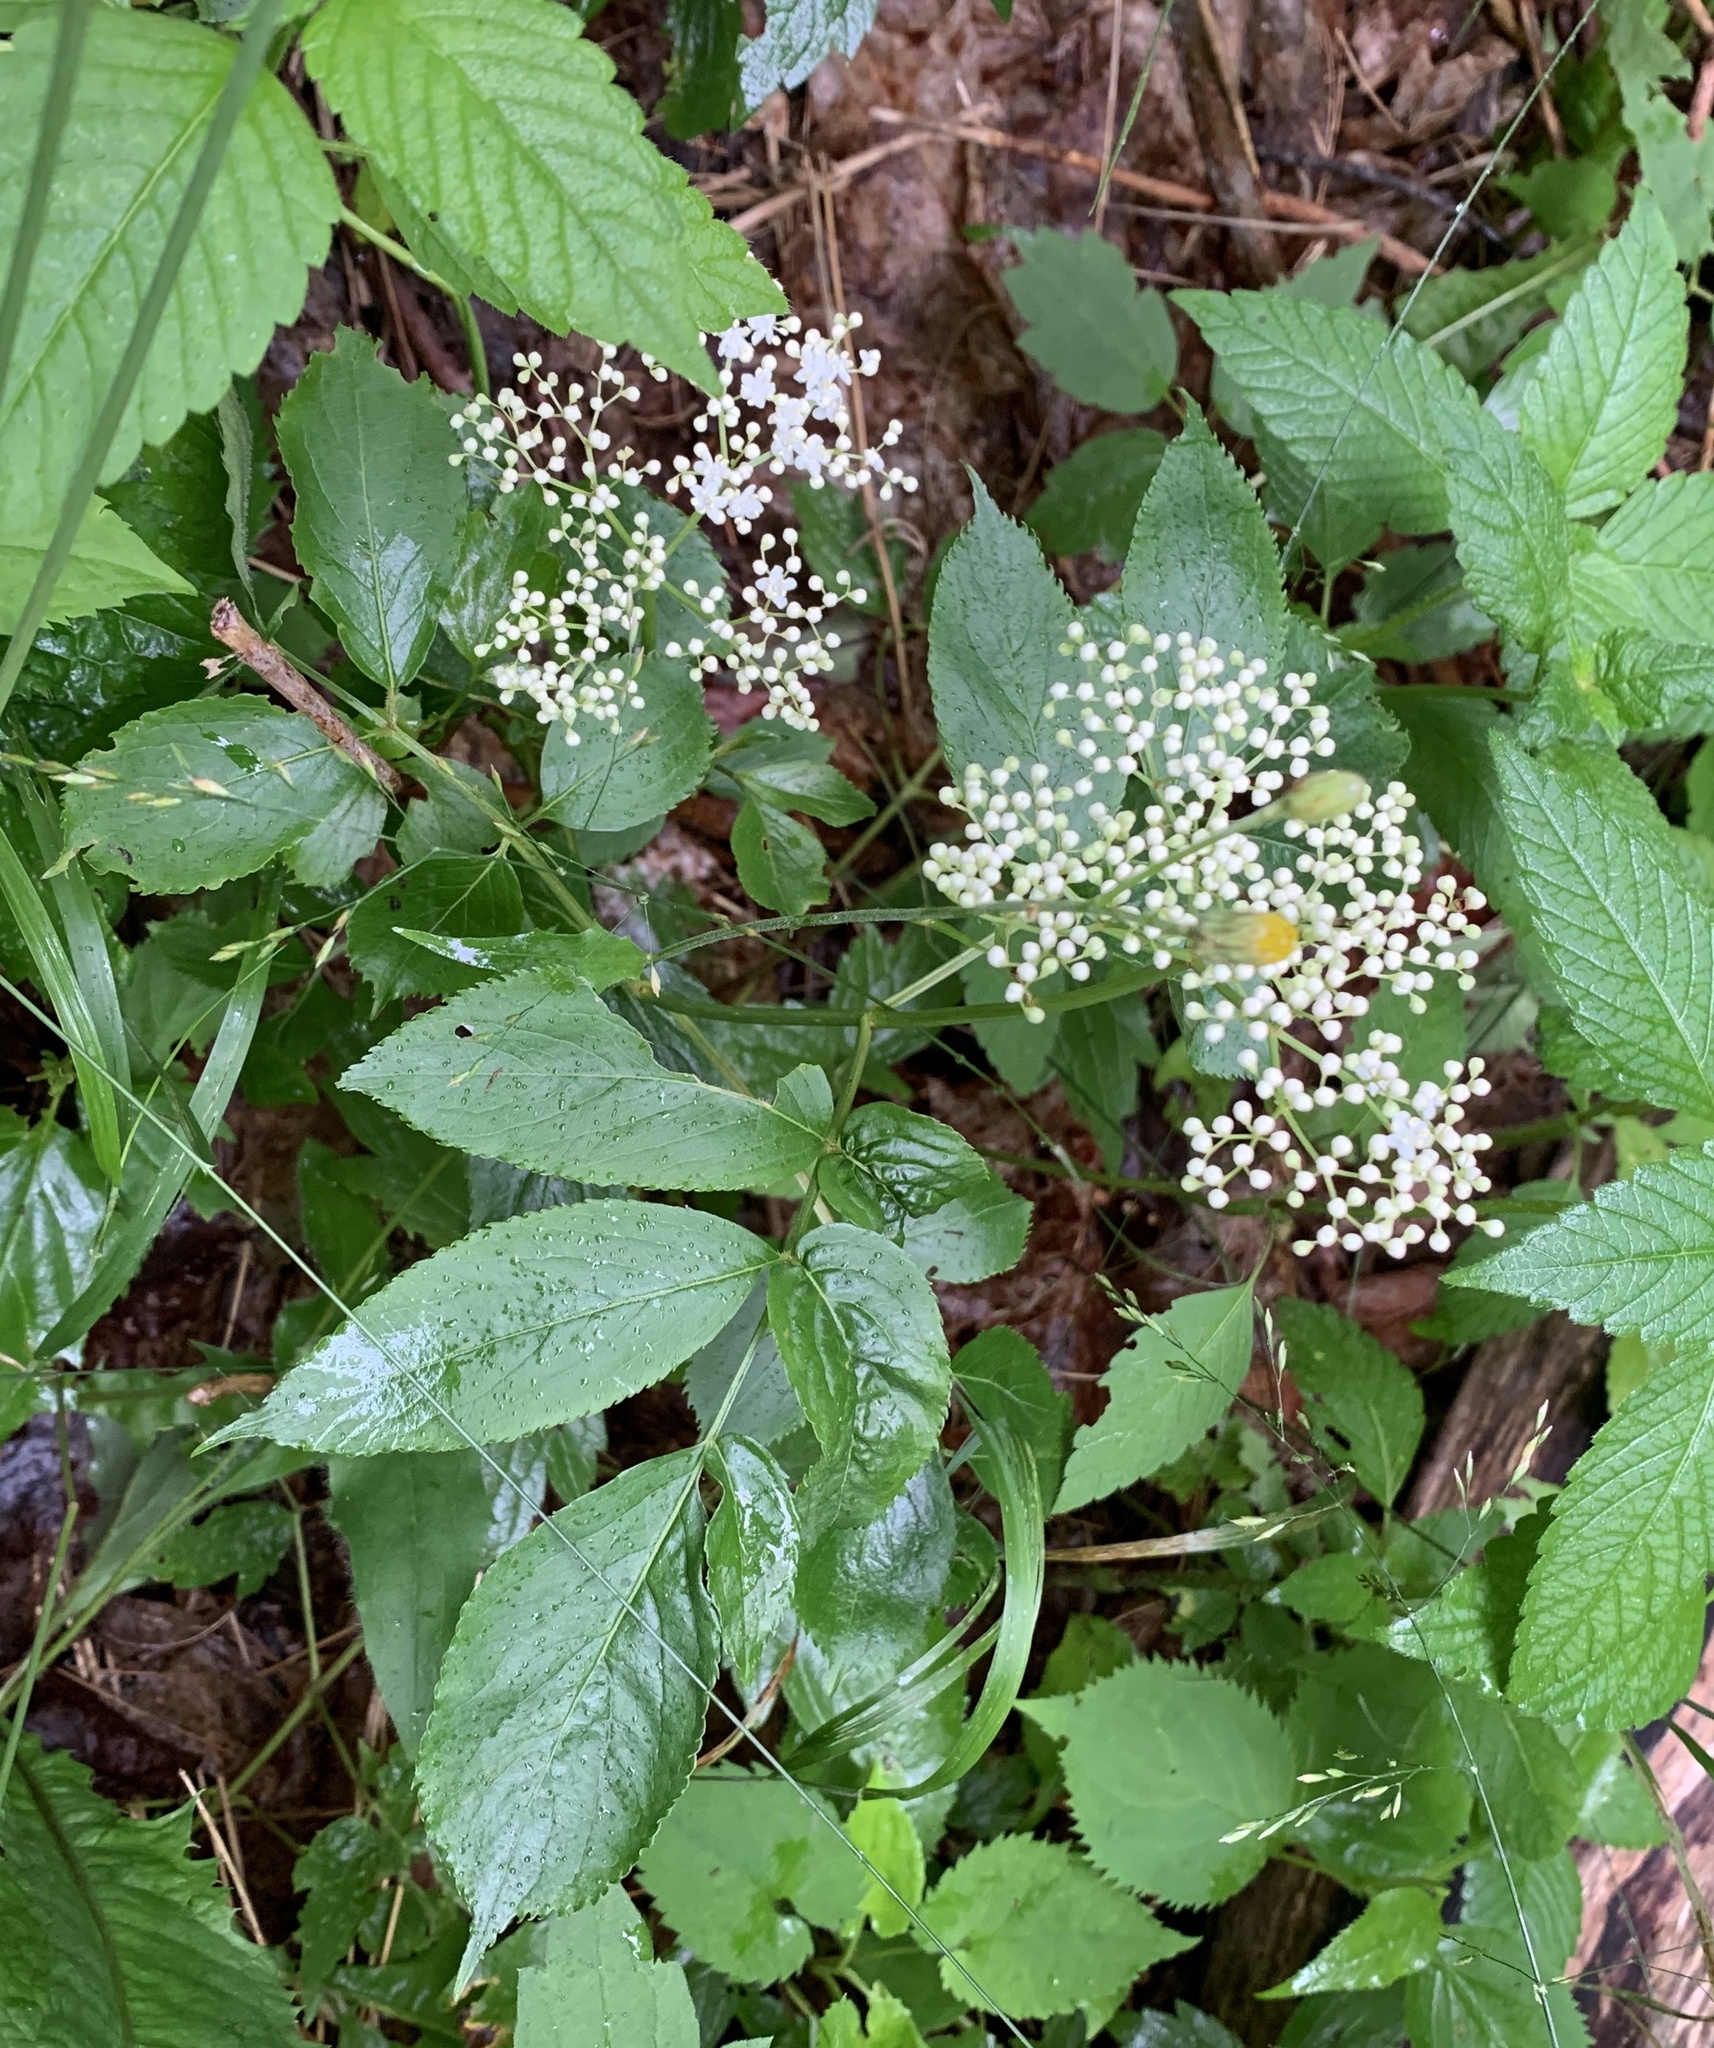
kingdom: Plantae
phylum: Tracheophyta
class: Magnoliopsida
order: Dipsacales
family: Viburnaceae
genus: Sambucus
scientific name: Sambucus canadensis
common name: American elder
